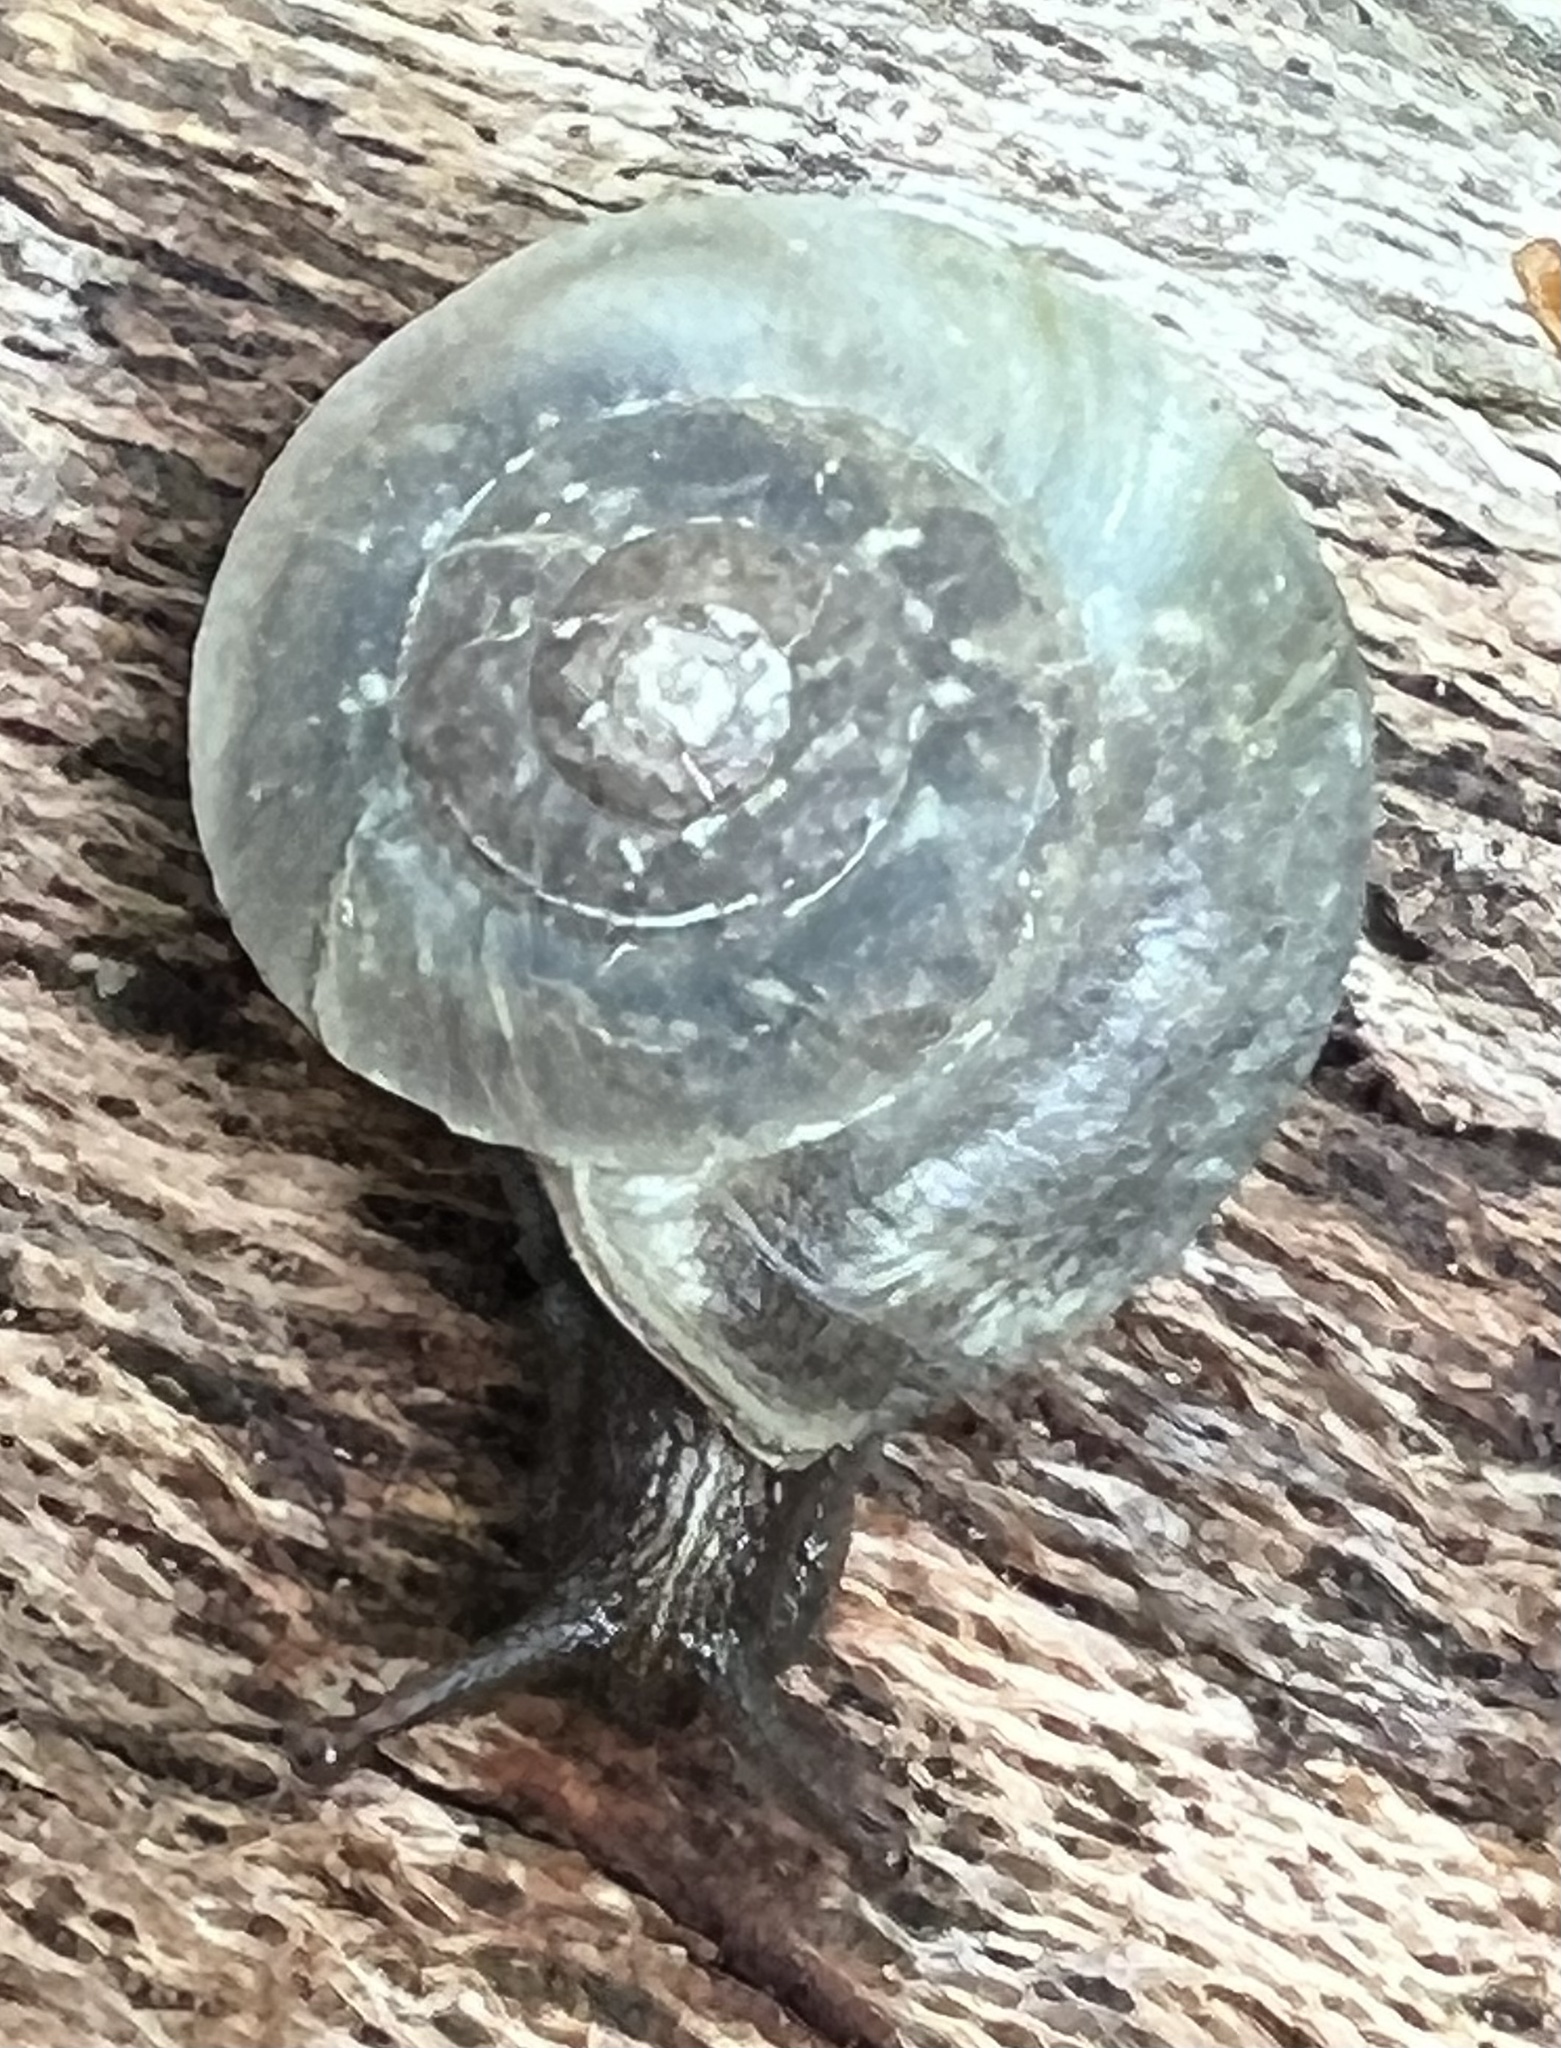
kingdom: Animalia
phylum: Mollusca
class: Gastropoda
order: Stylommatophora
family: Helicidae
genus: Helicigona
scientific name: Helicigona lapicida
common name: Lapidary snail
